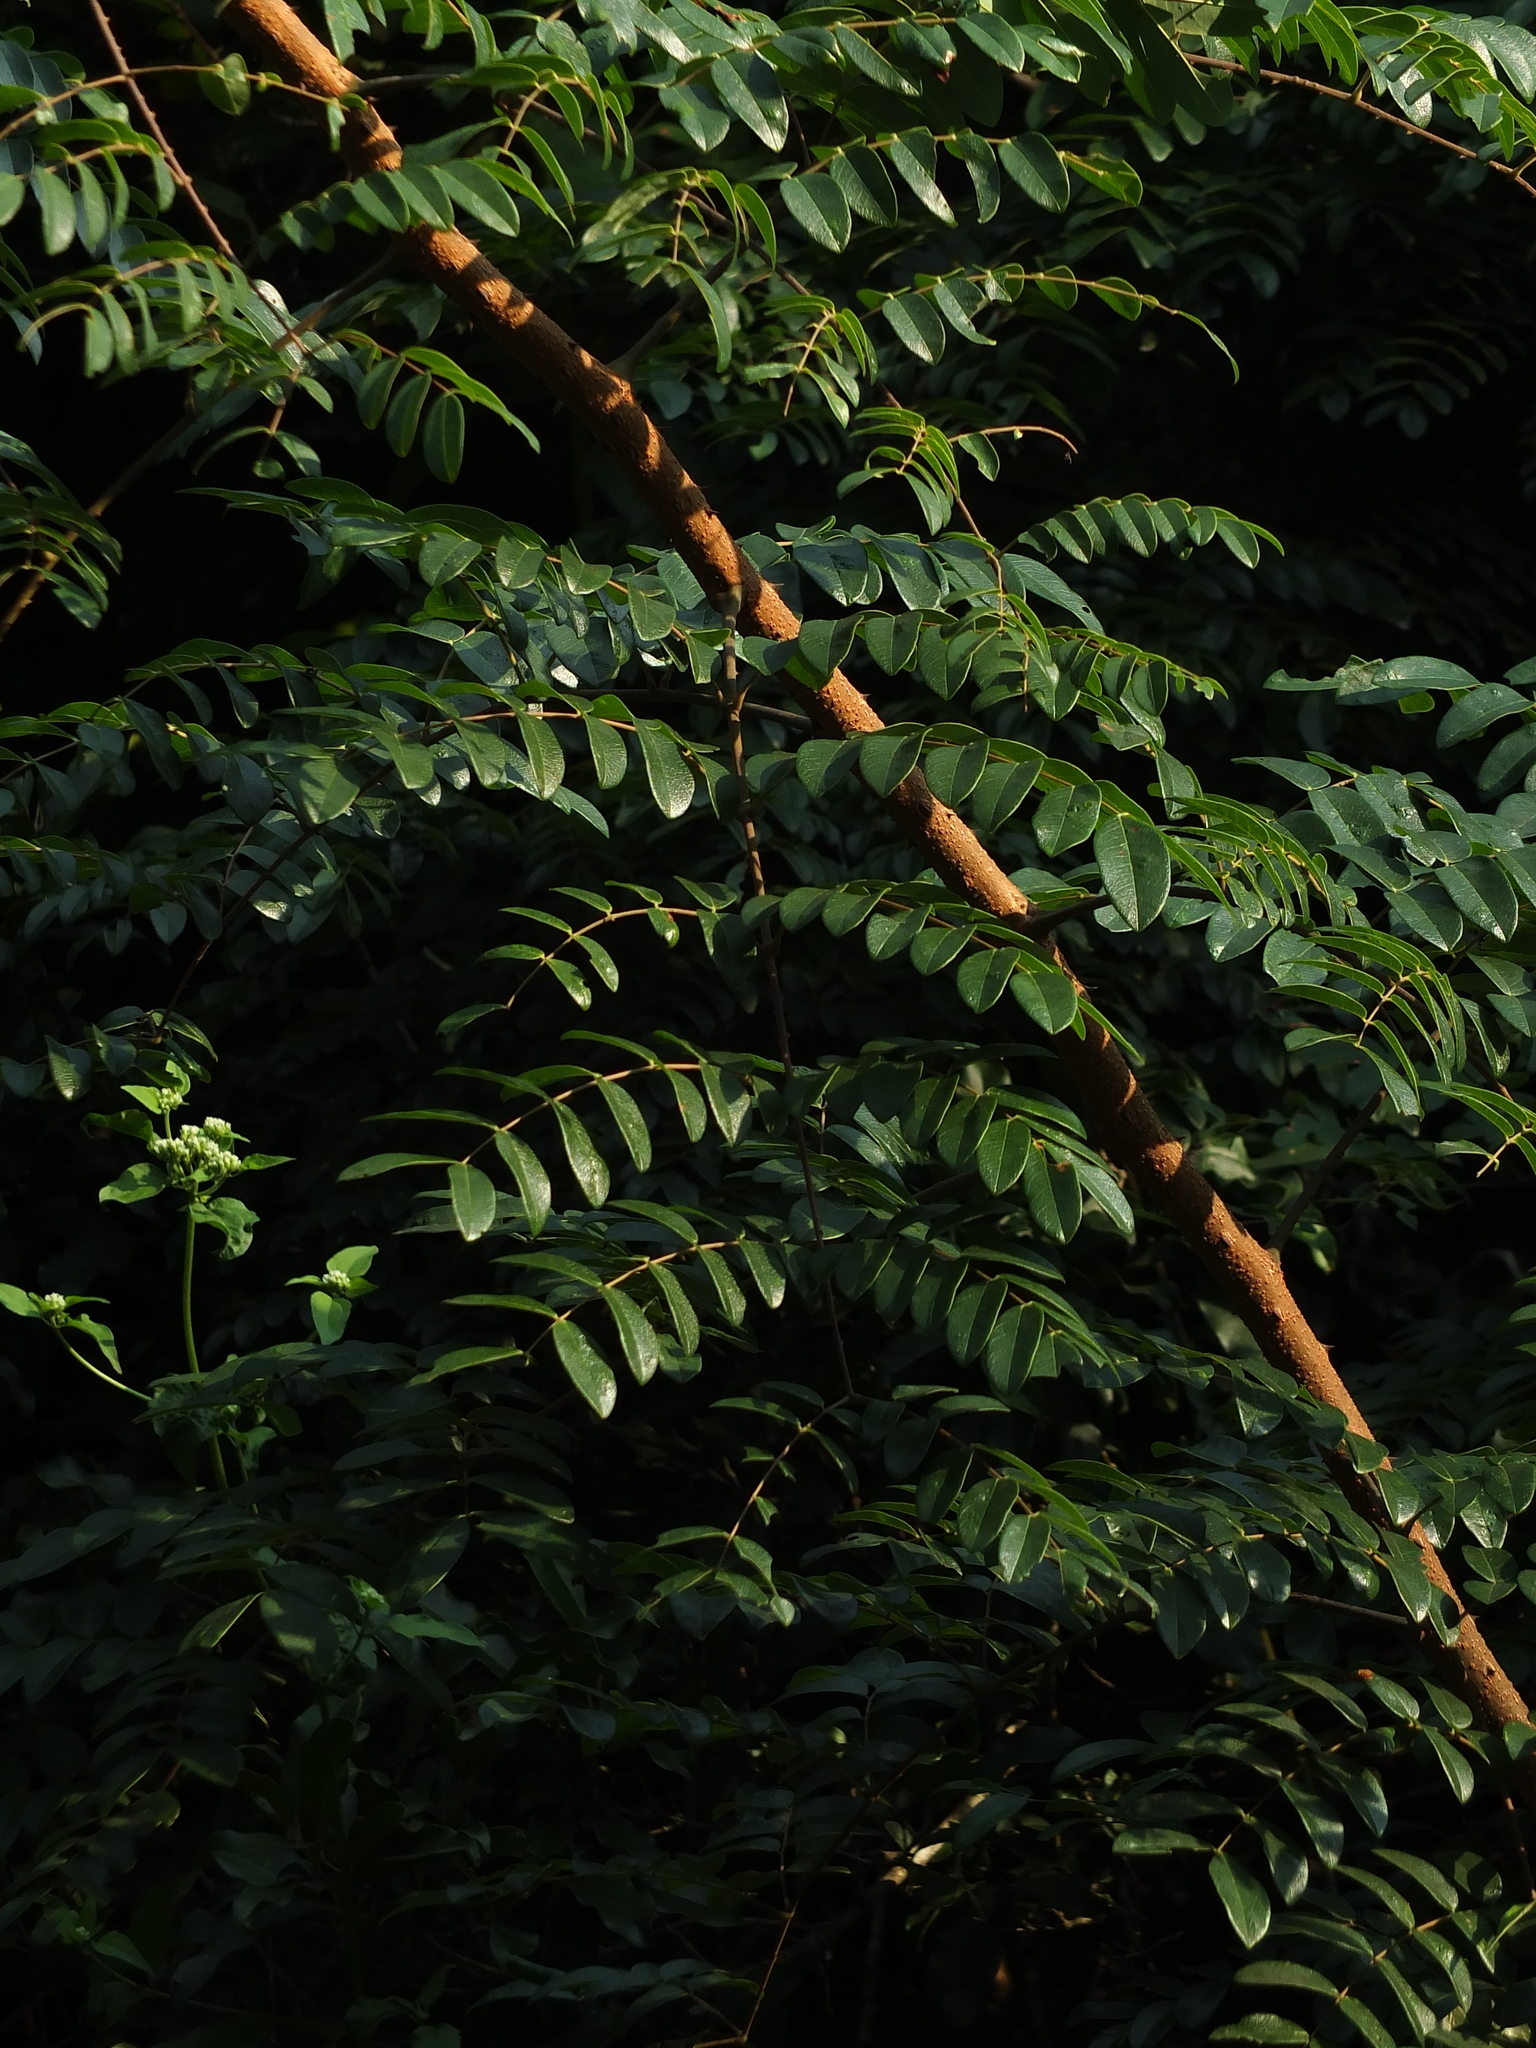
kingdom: Plantae
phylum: Tracheophyta
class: Magnoliopsida
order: Fabales
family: Fabaceae
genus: Moullava
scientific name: Moullava spicata
